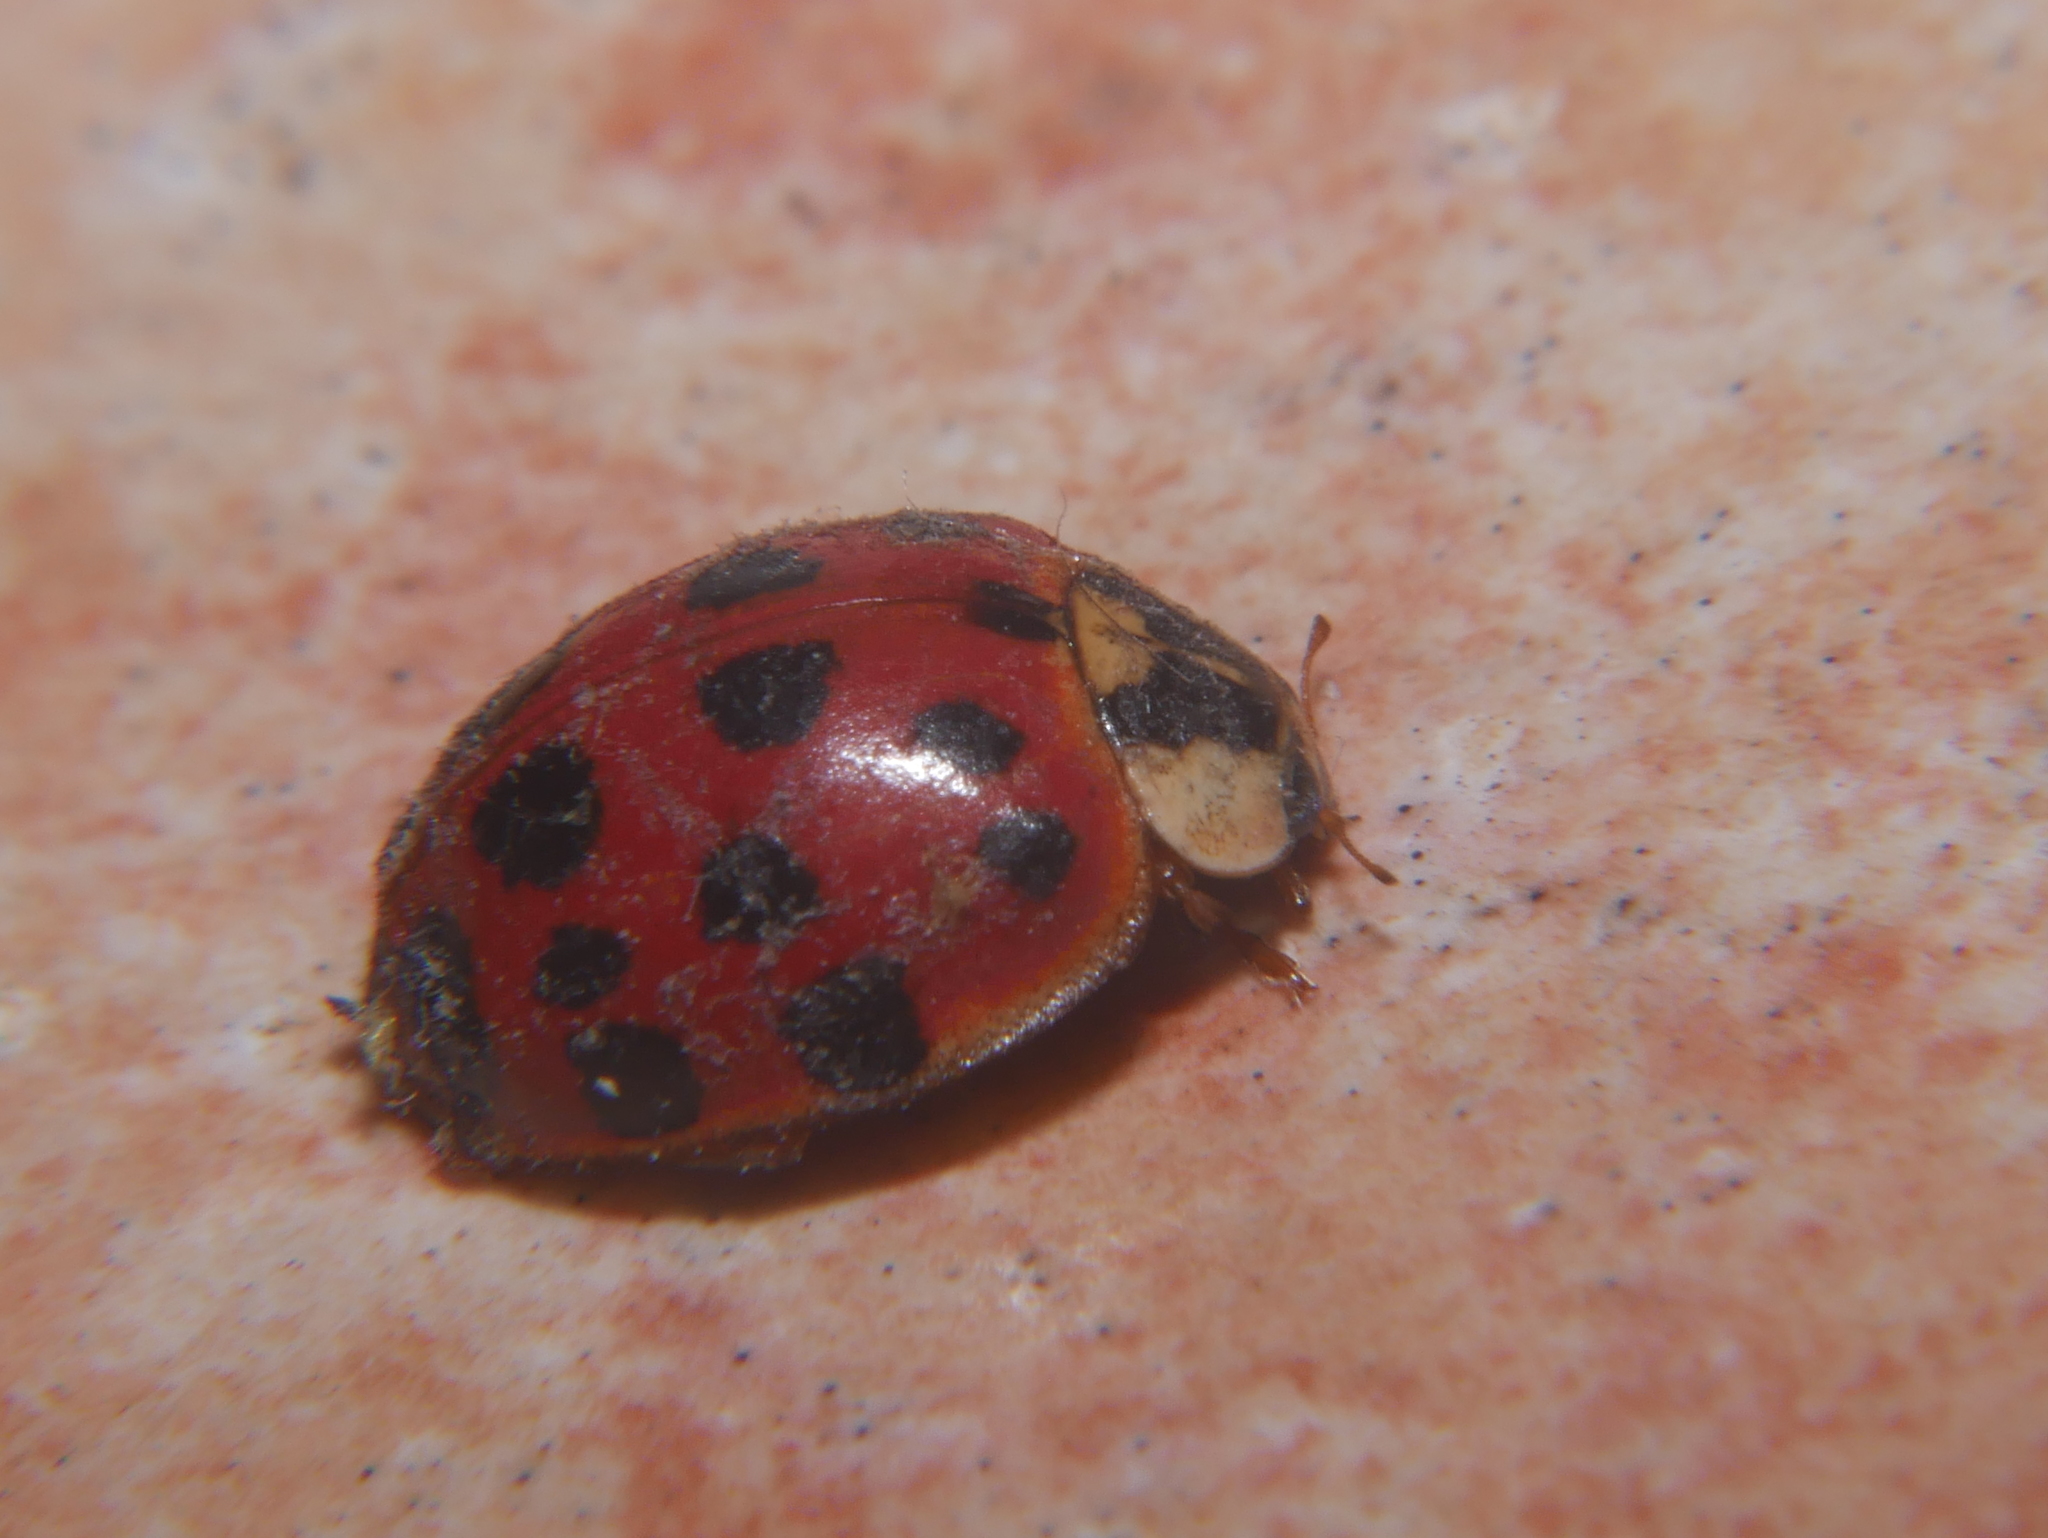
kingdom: Animalia
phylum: Arthropoda
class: Insecta
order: Coleoptera
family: Coccinellidae
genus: Harmonia
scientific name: Harmonia axyridis
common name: Harlequin ladybird
